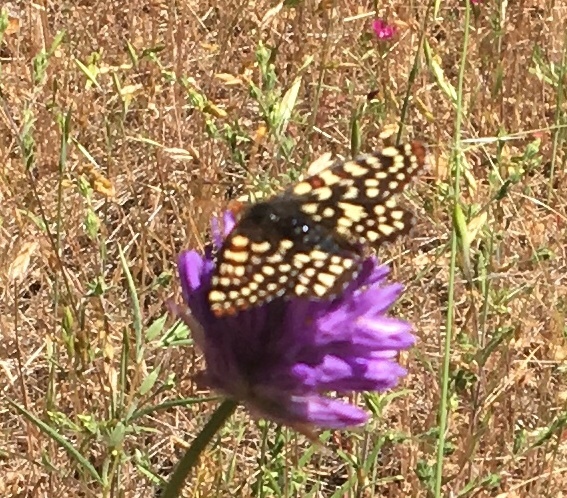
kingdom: Animalia
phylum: Arthropoda
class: Insecta
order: Lepidoptera
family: Nymphalidae
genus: Occidryas
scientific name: Occidryas chalcedona
